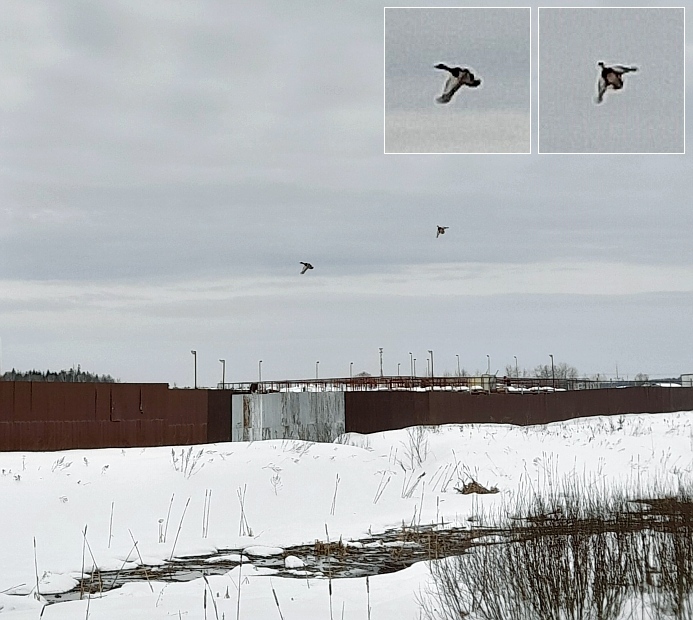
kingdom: Animalia
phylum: Chordata
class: Aves
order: Anseriformes
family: Anatidae
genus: Anas
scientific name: Anas platyrhynchos
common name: Mallard
